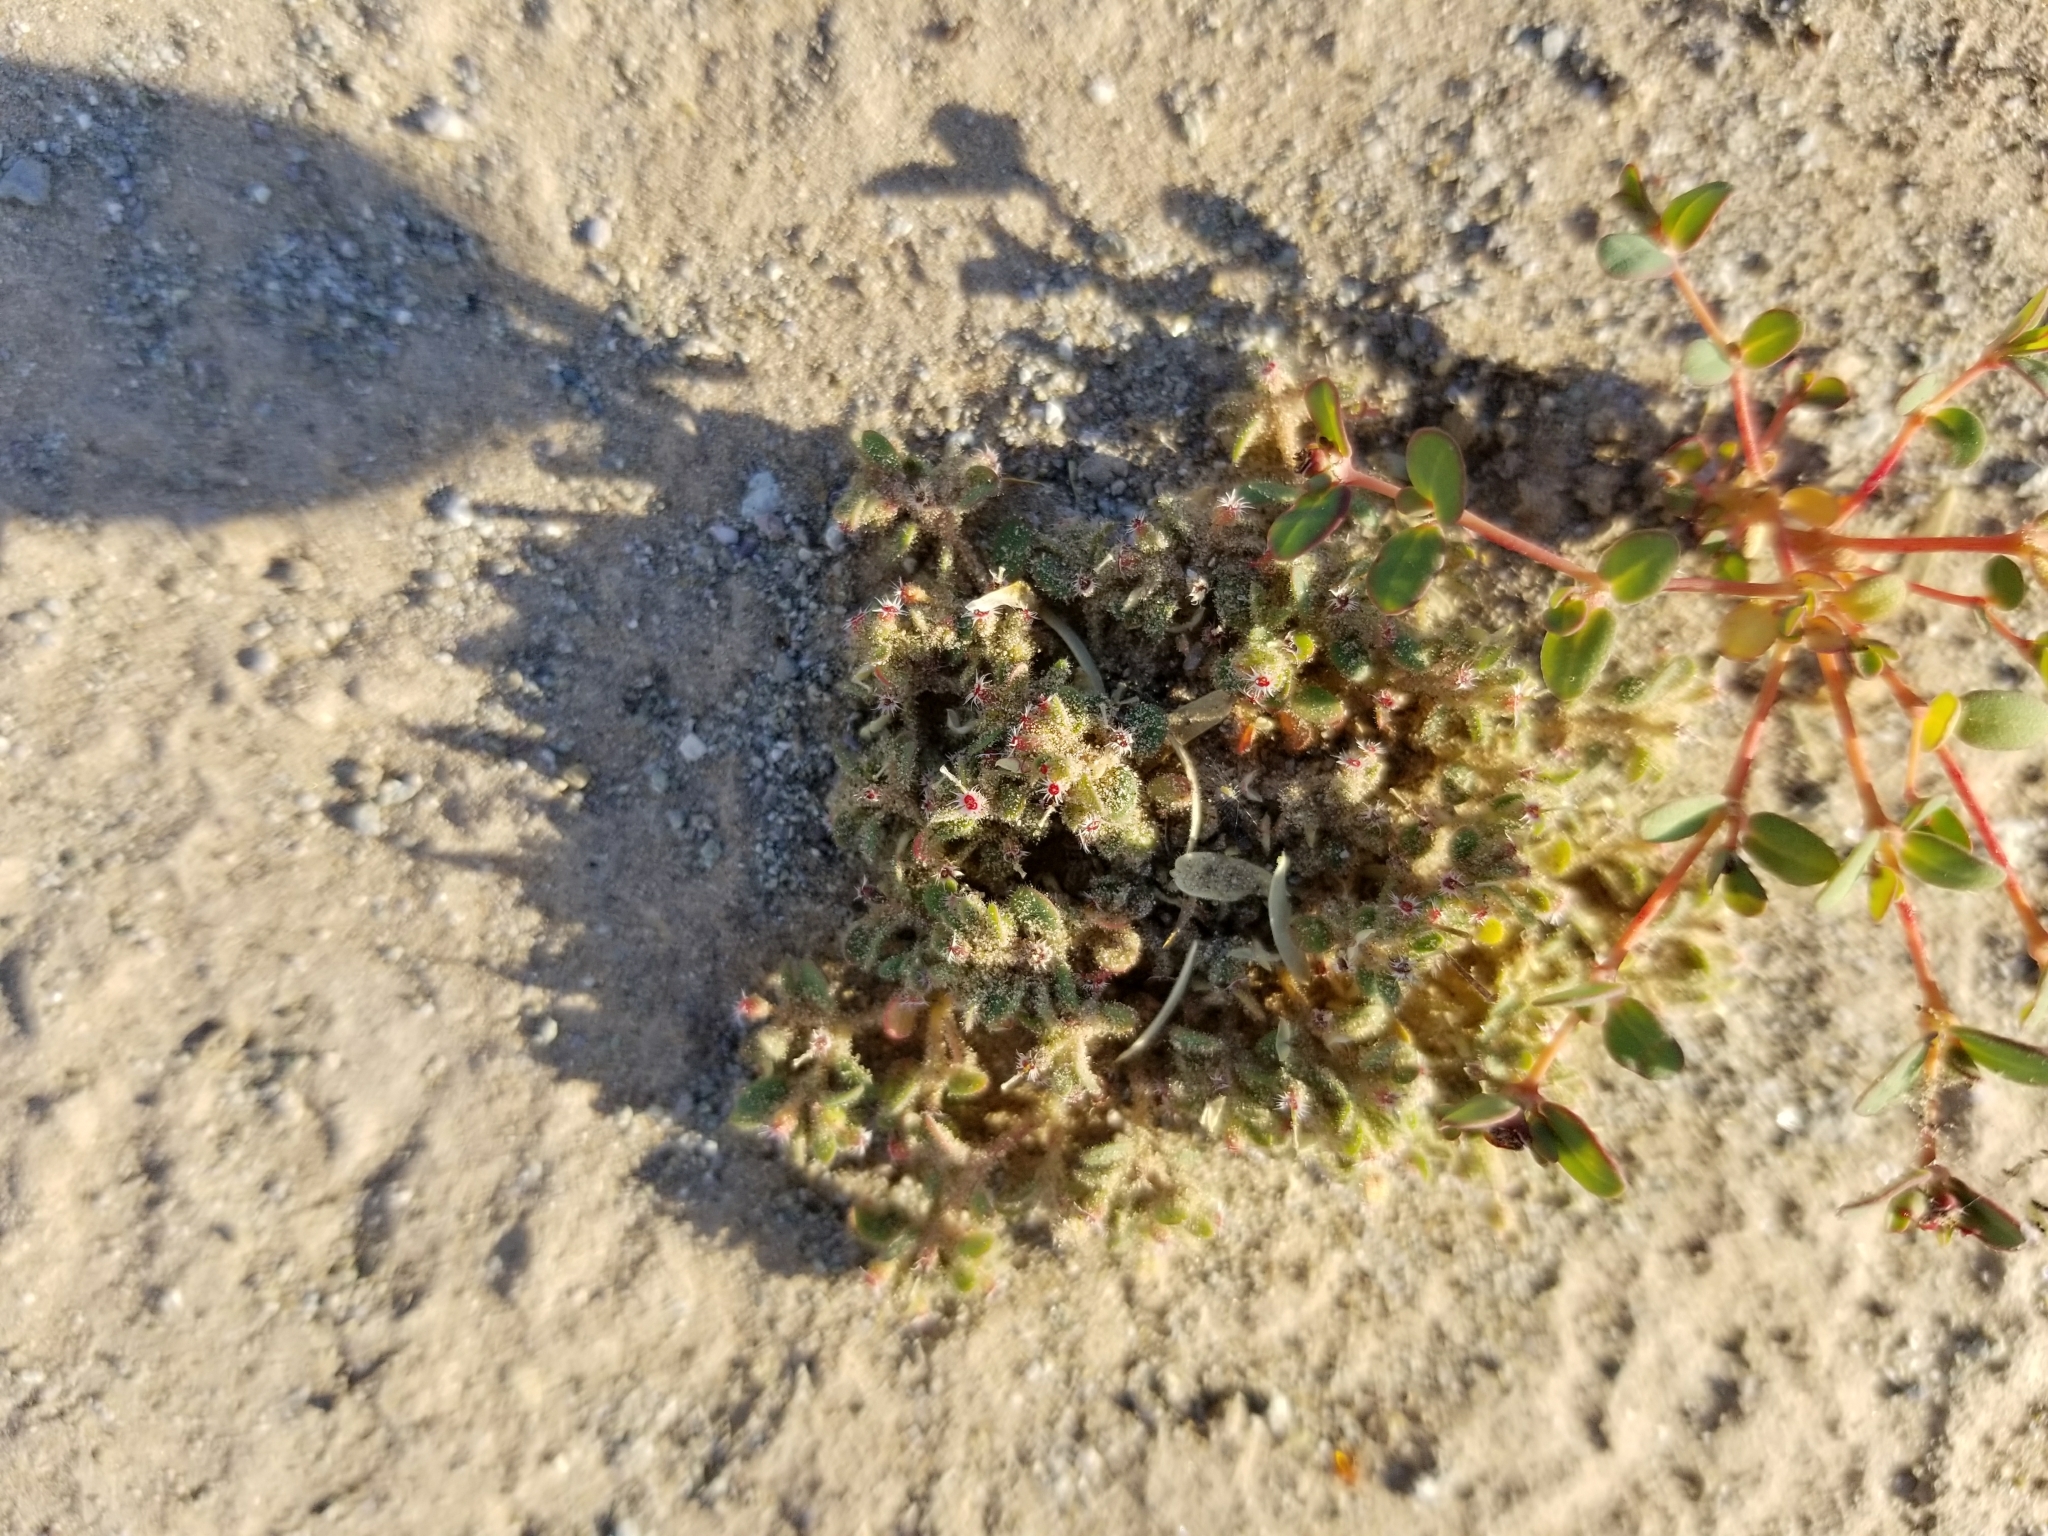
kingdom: Plantae
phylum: Tracheophyta
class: Magnoliopsida
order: Malpighiales
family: Euphorbiaceae
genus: Euphorbia
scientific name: Euphorbia setiloba
